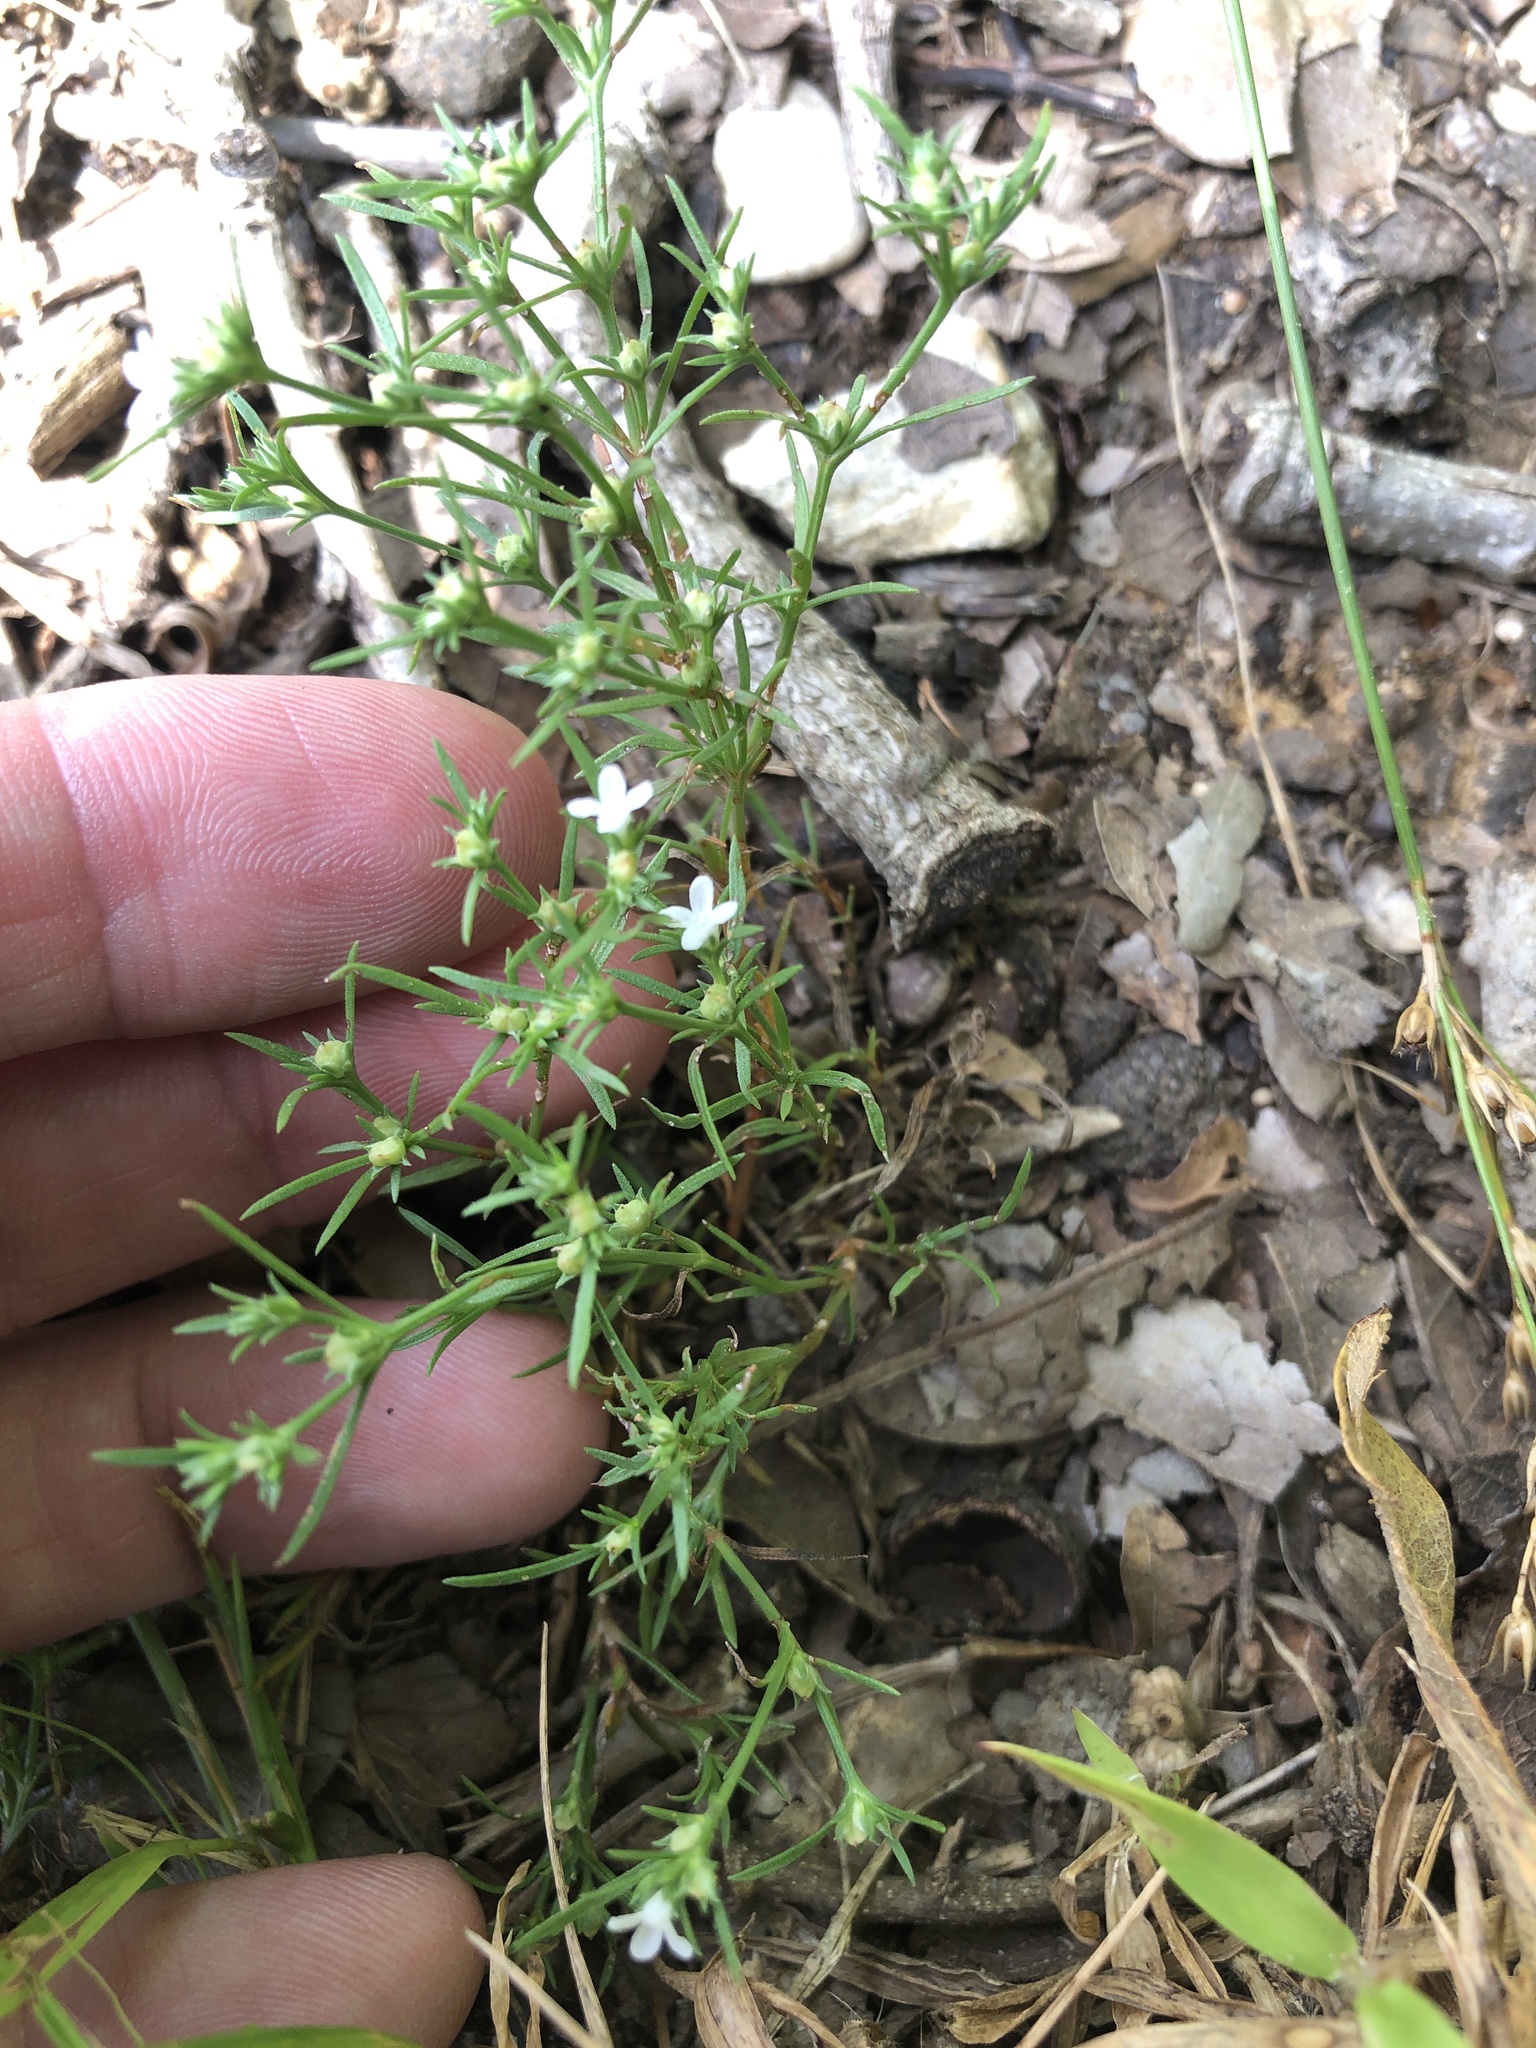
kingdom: Plantae
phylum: Tracheophyta
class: Magnoliopsida
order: Lamiales
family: Tetrachondraceae
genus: Polypremum
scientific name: Polypremum procumbens
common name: Juniper-leaf
